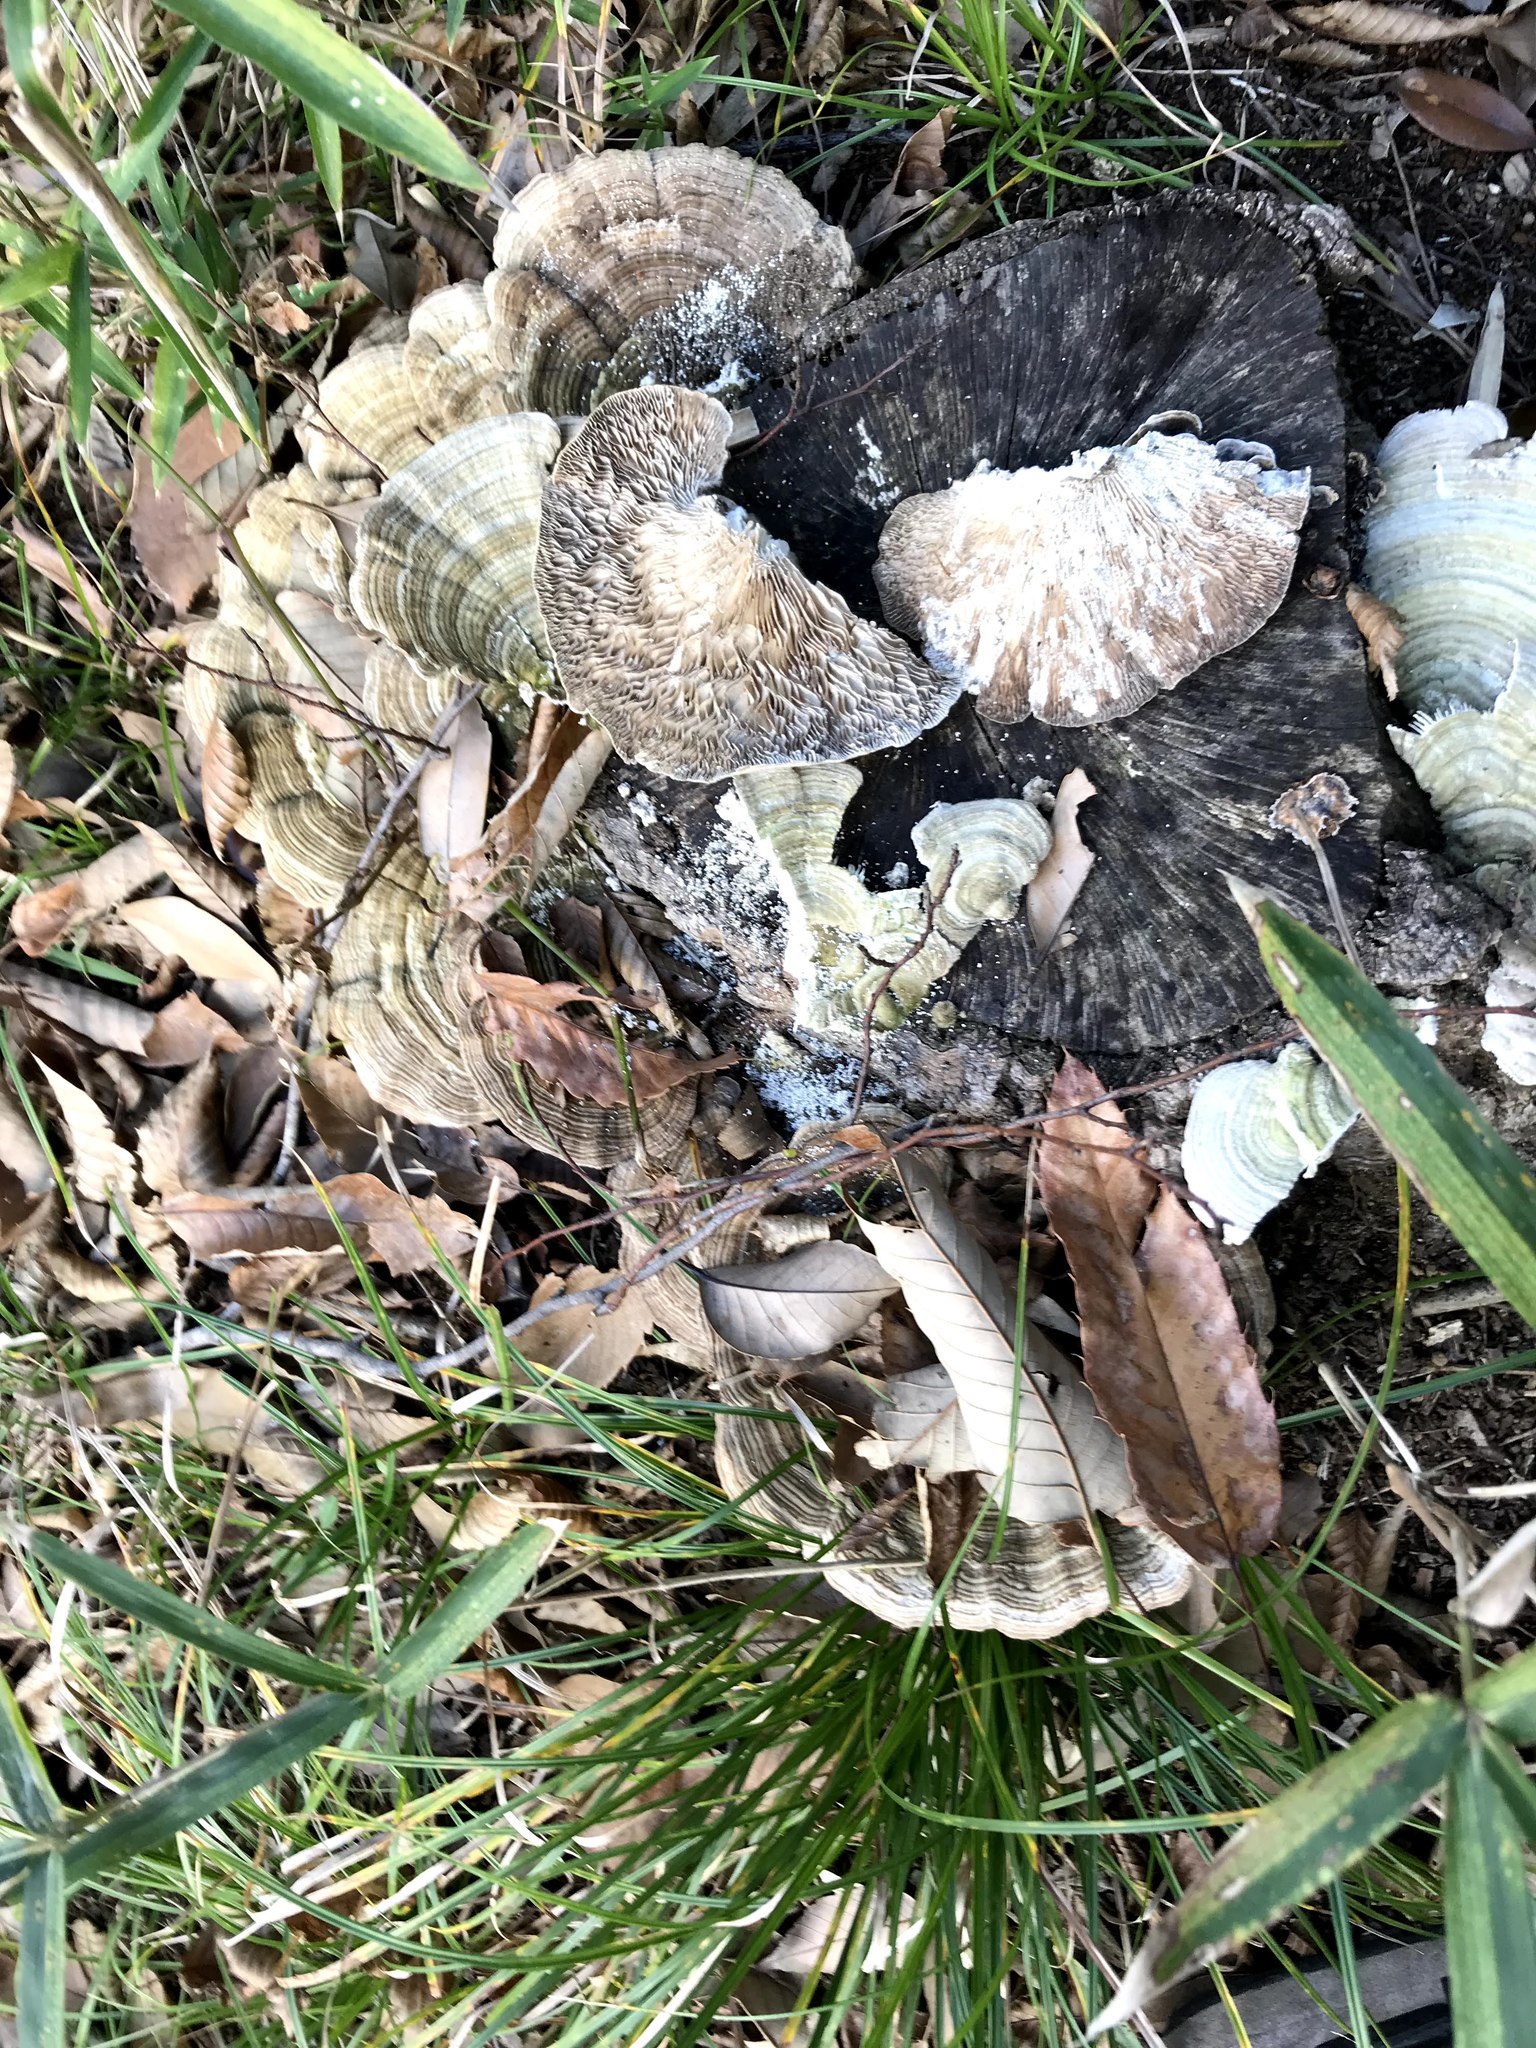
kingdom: Fungi
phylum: Basidiomycota
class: Agaricomycetes
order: Polyporales
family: Polyporaceae
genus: Lenzites
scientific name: Lenzites betulinus
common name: Birch mazegill
